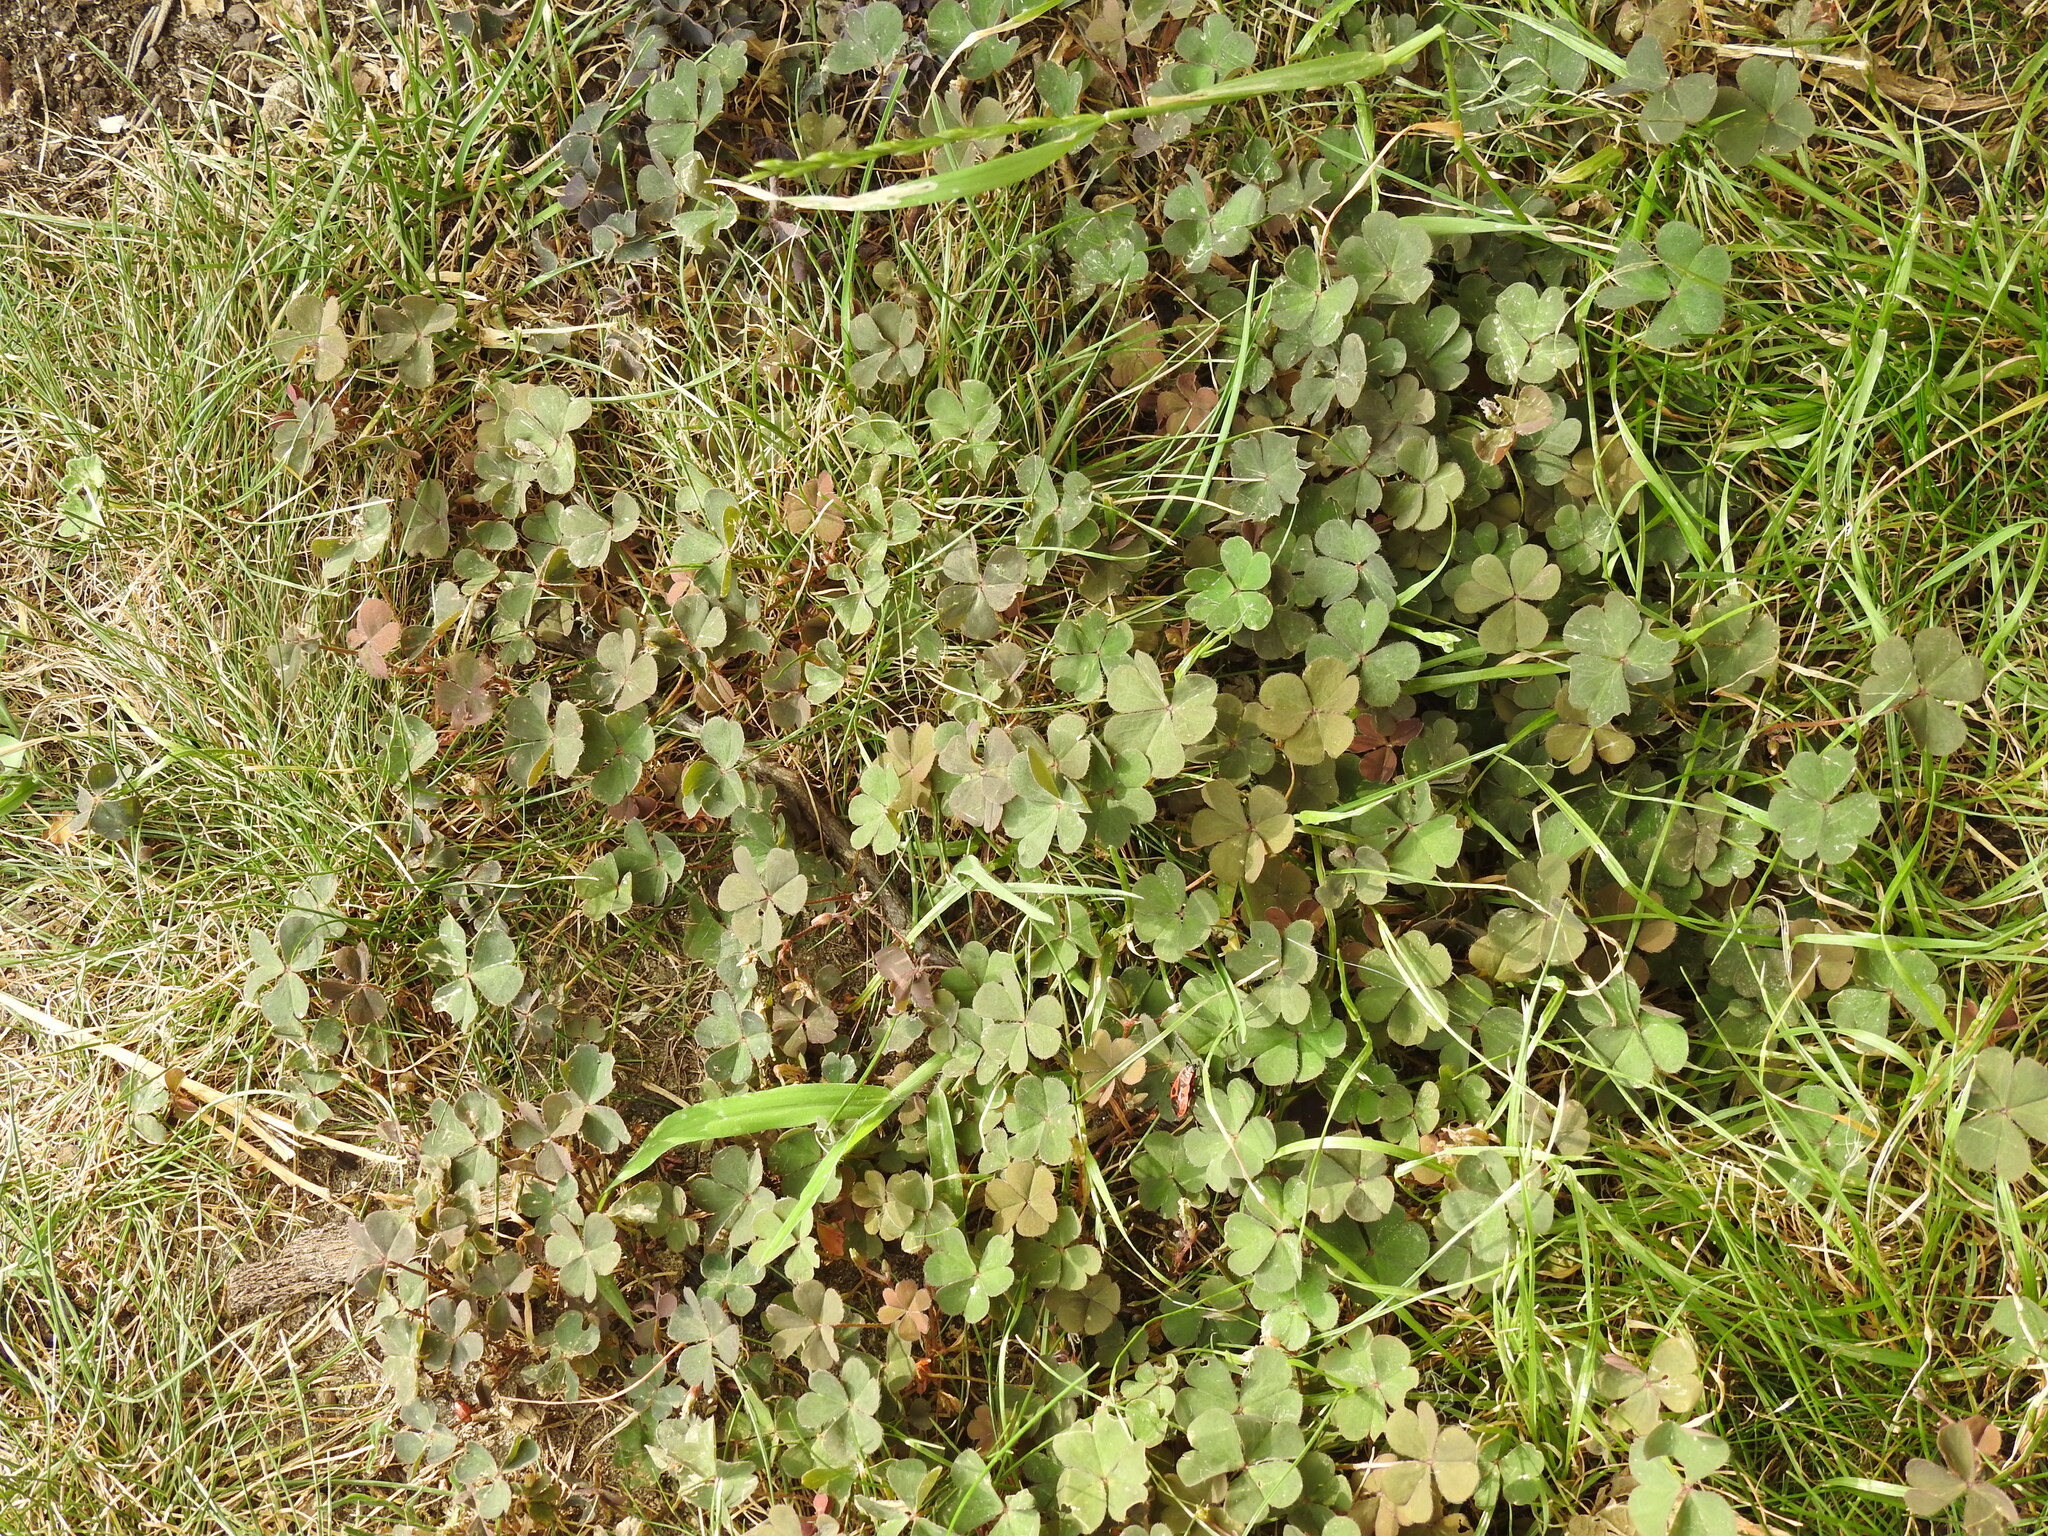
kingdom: Plantae
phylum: Tracheophyta
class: Magnoliopsida
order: Oxalidales
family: Oxalidaceae
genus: Oxalis
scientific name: Oxalis corniculata
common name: Procumbent yellow-sorrel
